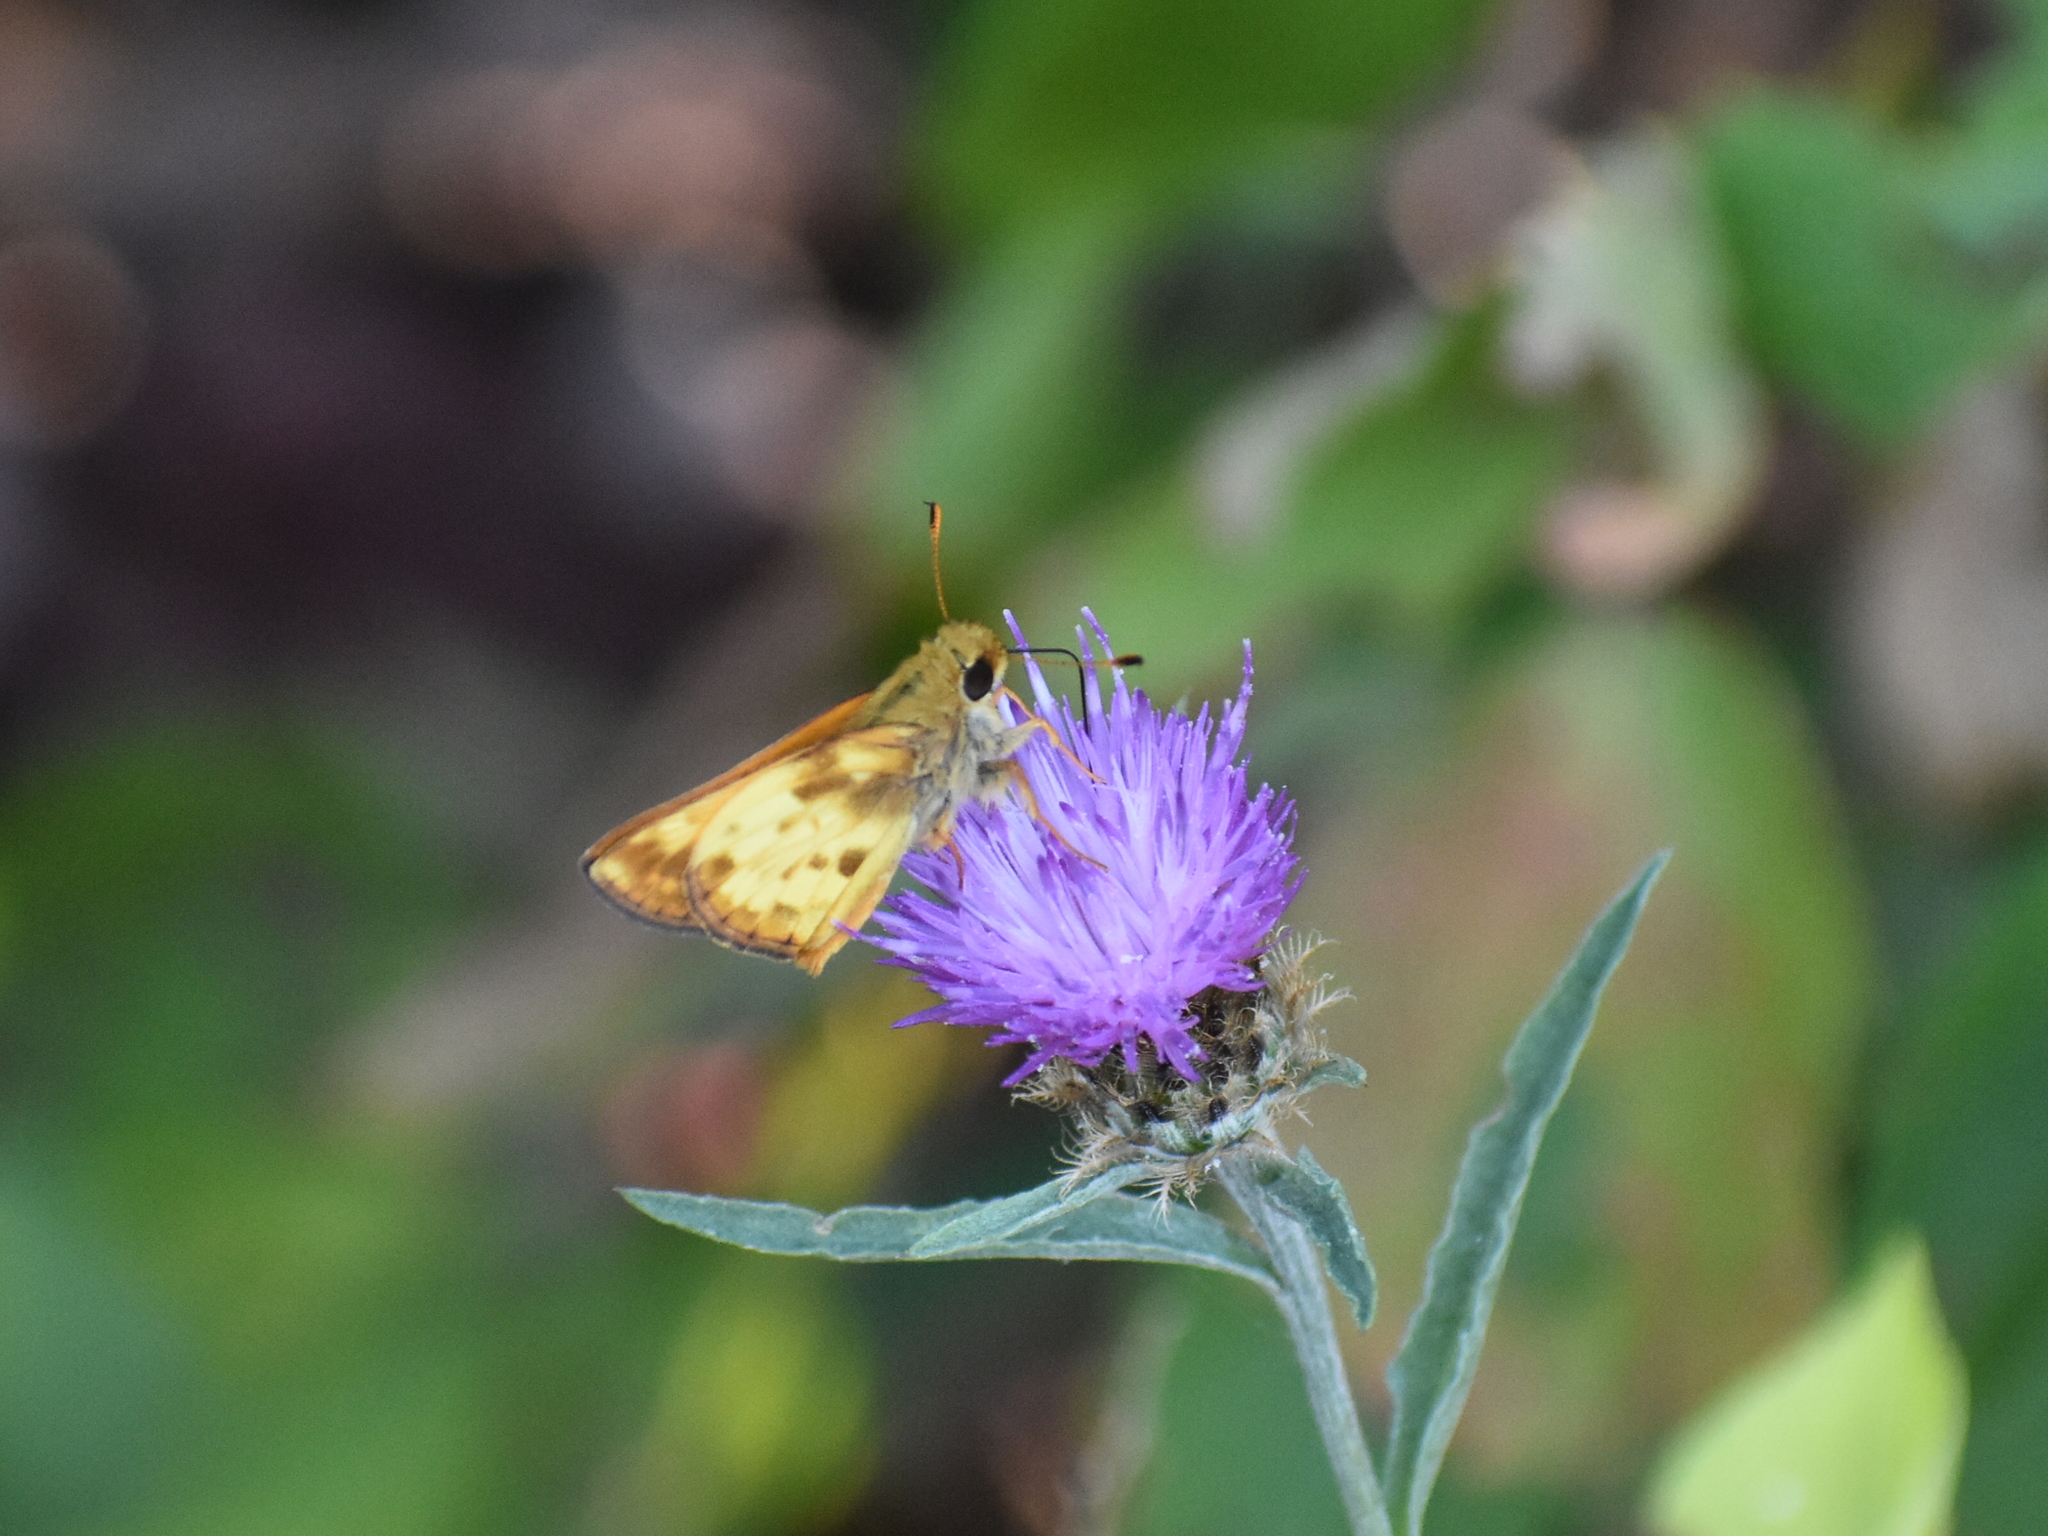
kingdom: Animalia
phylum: Arthropoda
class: Insecta
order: Lepidoptera
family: Hesperiidae
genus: Lon
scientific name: Lon zabulon
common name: Zabulon skipper
